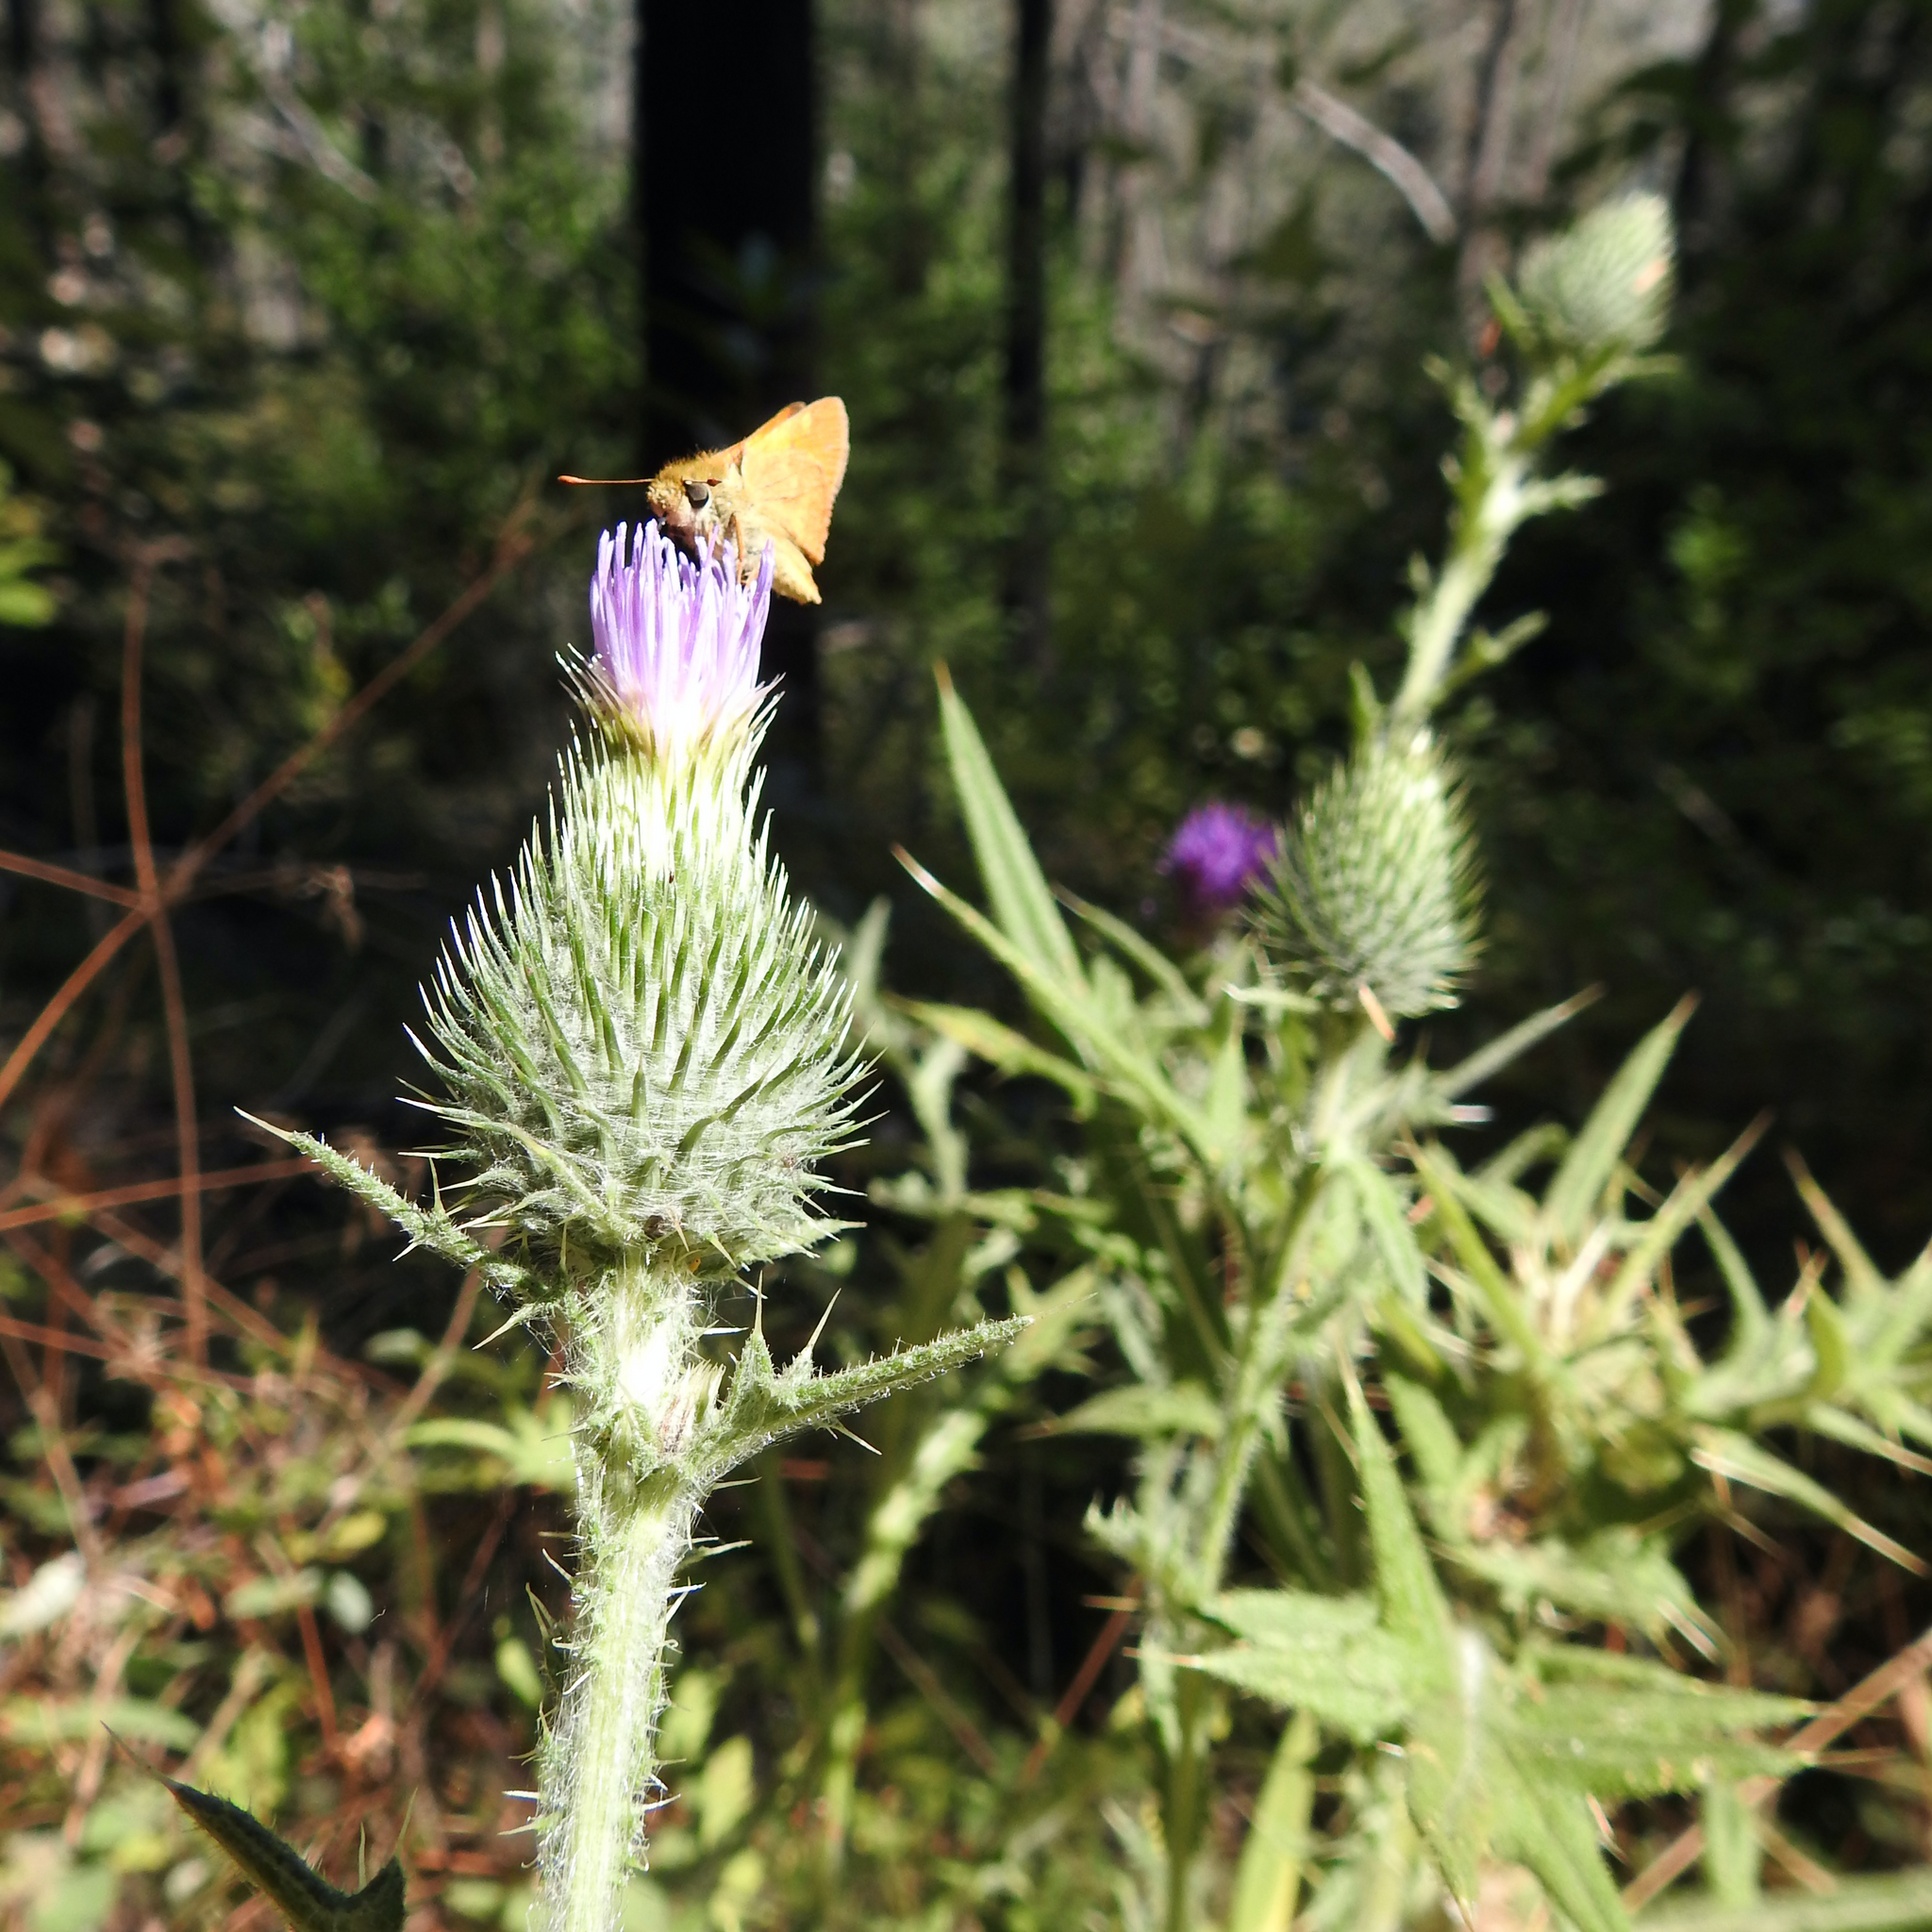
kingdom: Plantae
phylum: Tracheophyta
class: Magnoliopsida
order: Asterales
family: Asteraceae
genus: Cirsium
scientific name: Cirsium vulgare
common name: Bull thistle
